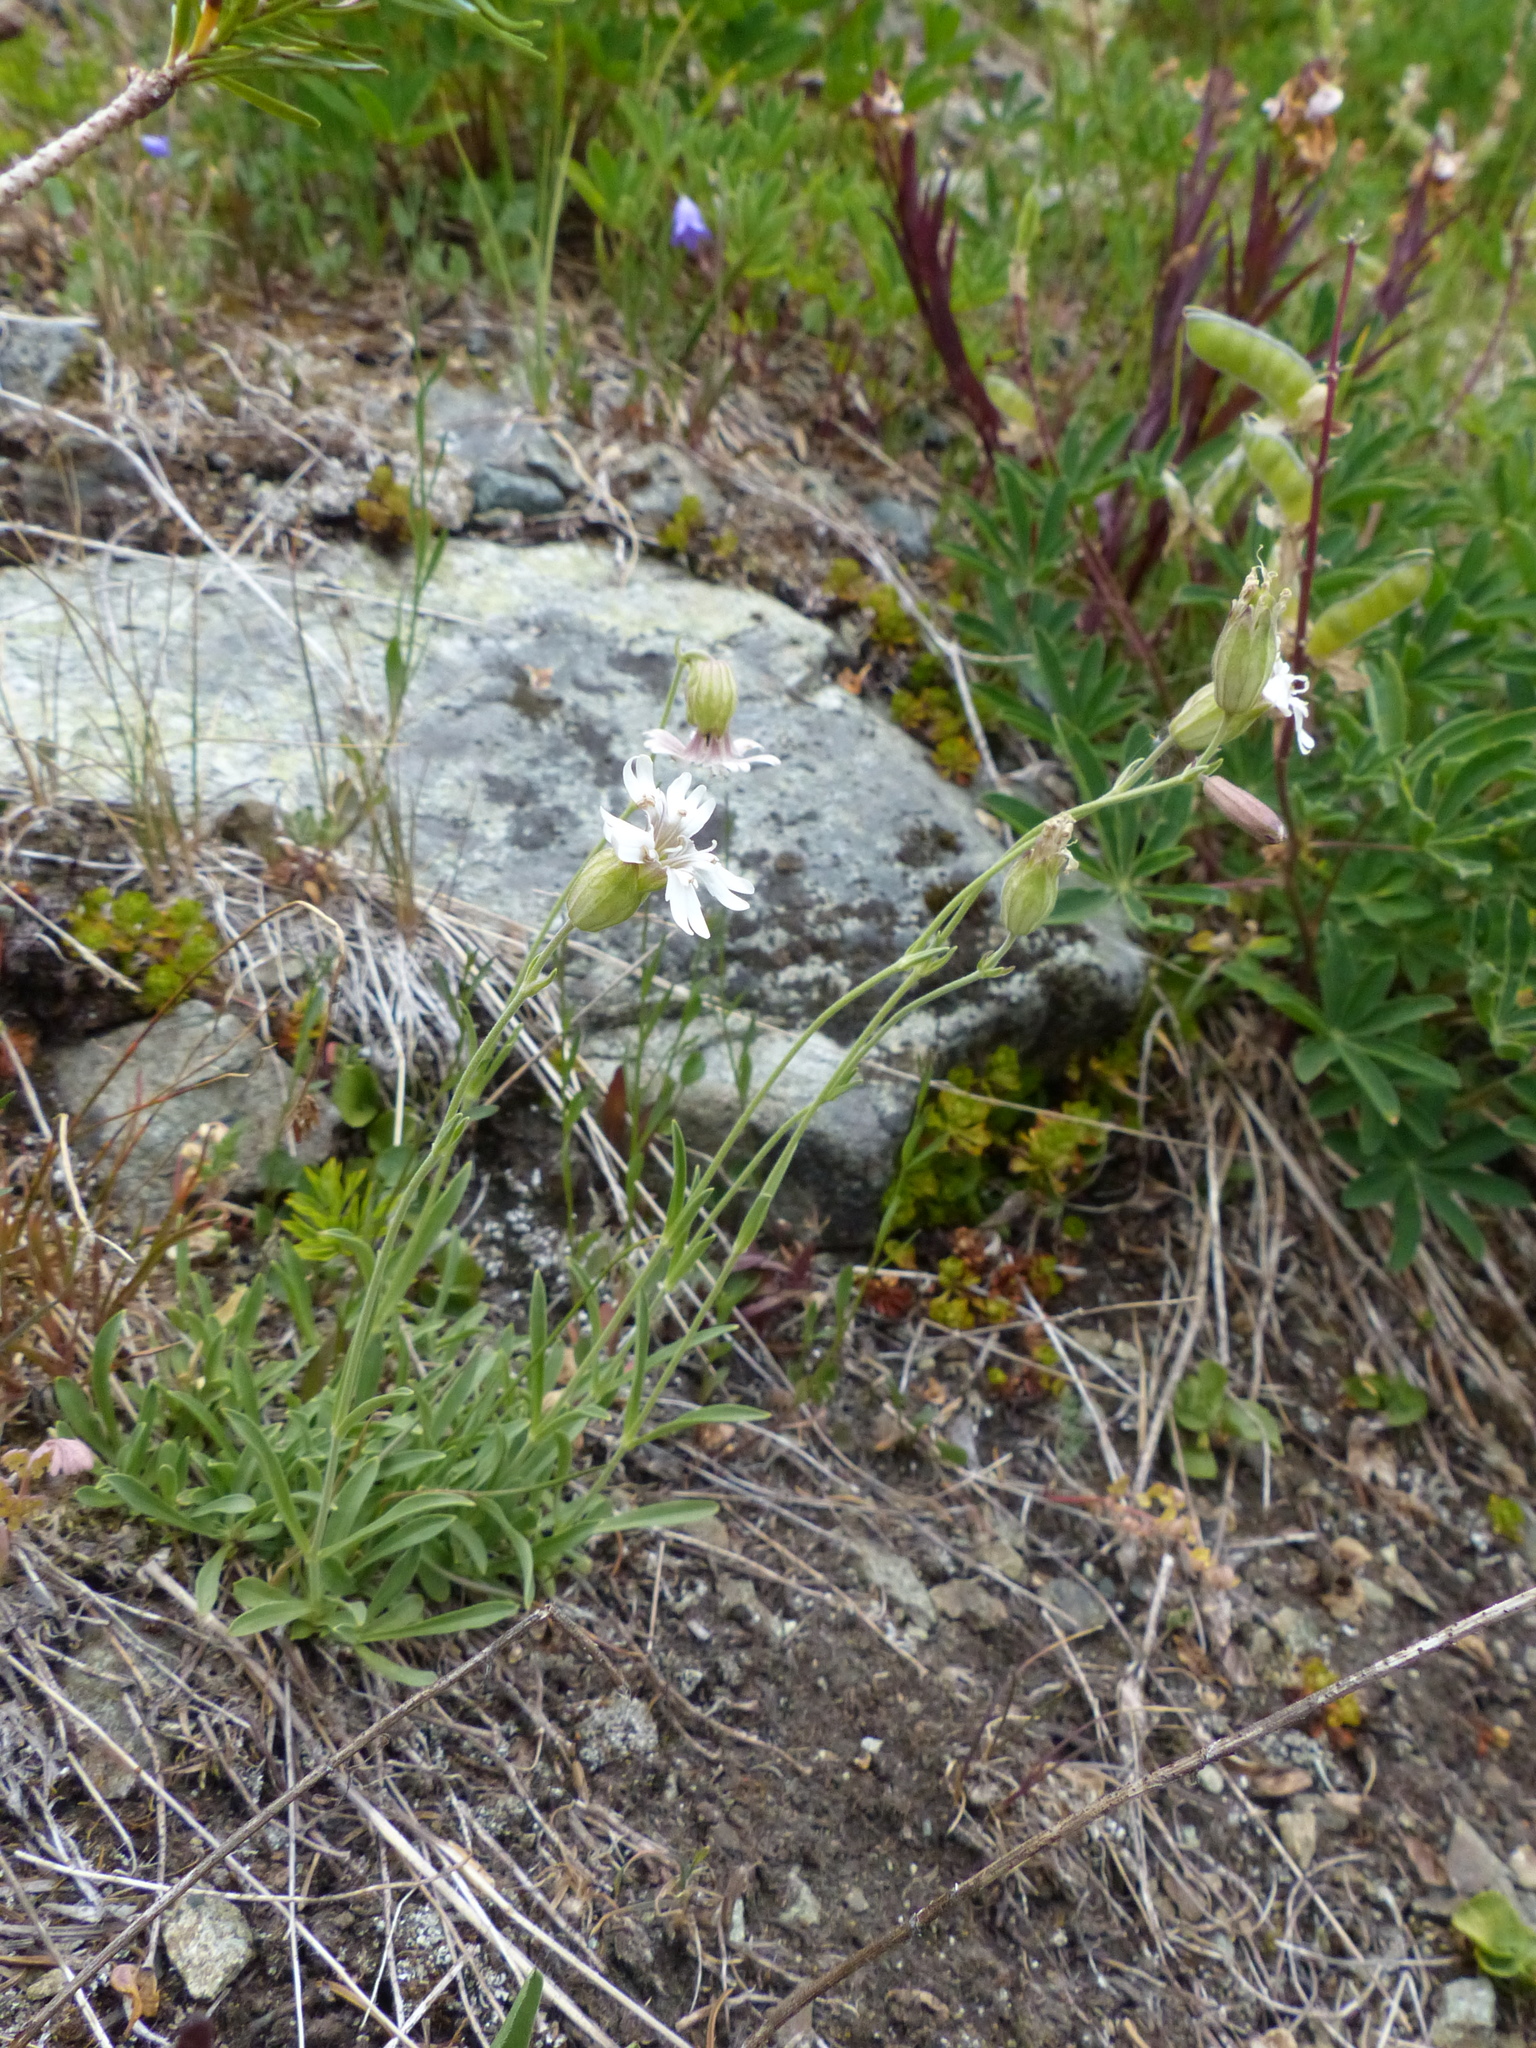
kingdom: Plantae
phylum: Tracheophyta
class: Magnoliopsida
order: Caryophyllales
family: Caryophyllaceae
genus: Silene
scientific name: Silene douglasii
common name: Douglas's catchfly
